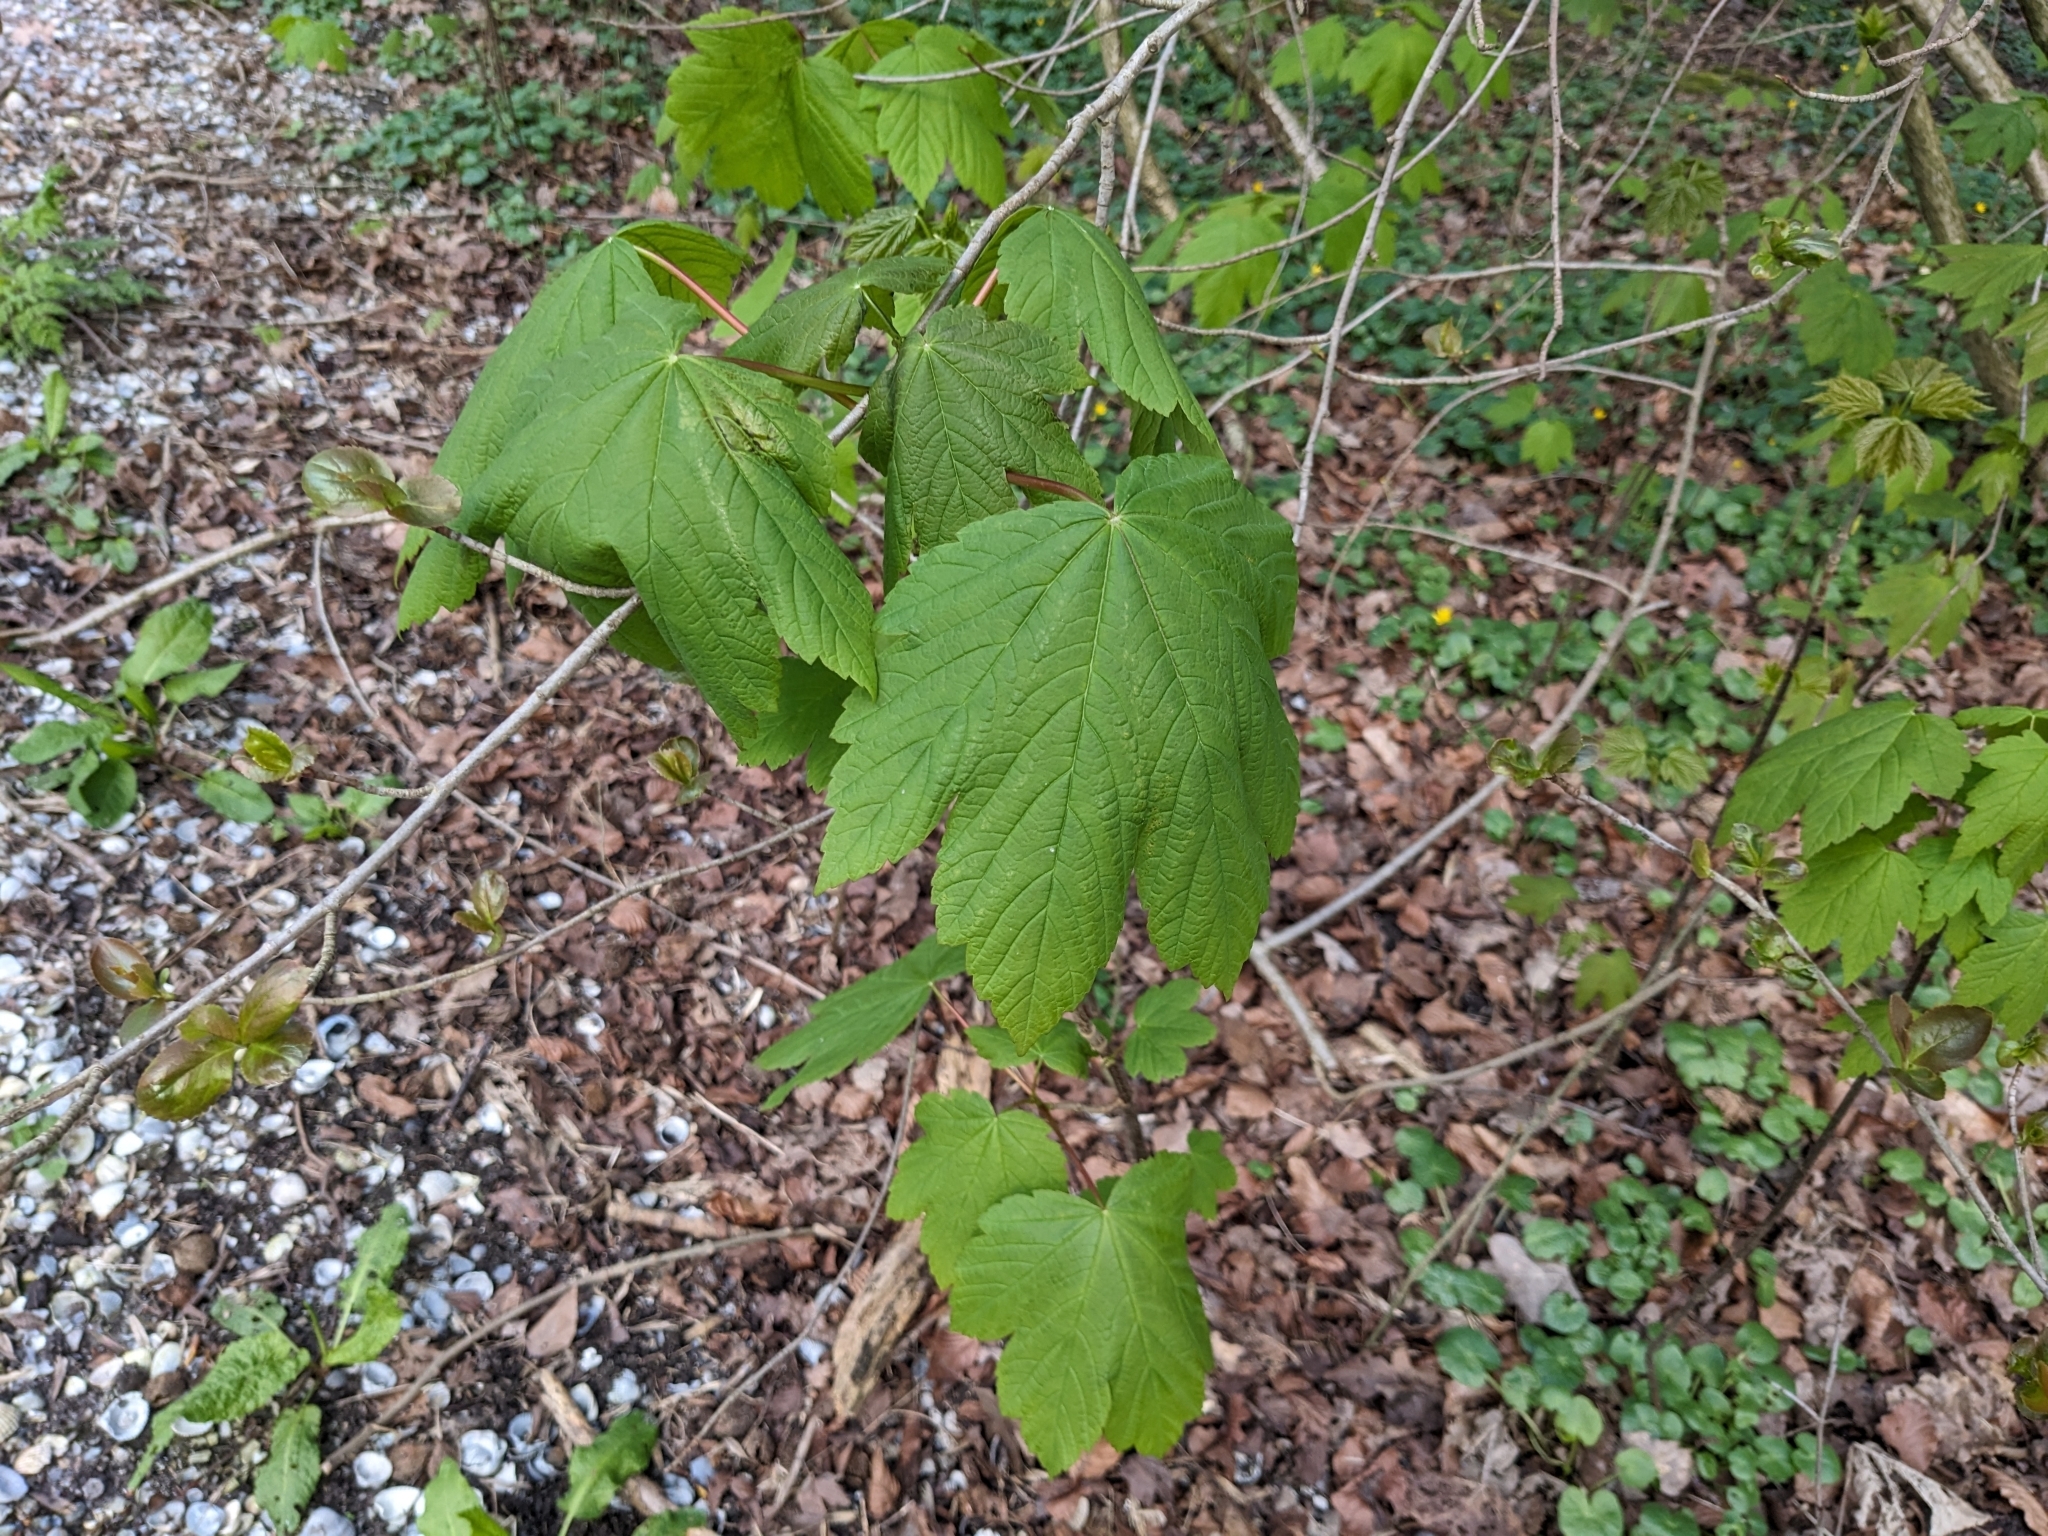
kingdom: Plantae
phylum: Tracheophyta
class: Magnoliopsida
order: Sapindales
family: Sapindaceae
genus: Acer
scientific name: Acer pseudoplatanus
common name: Sycamore
